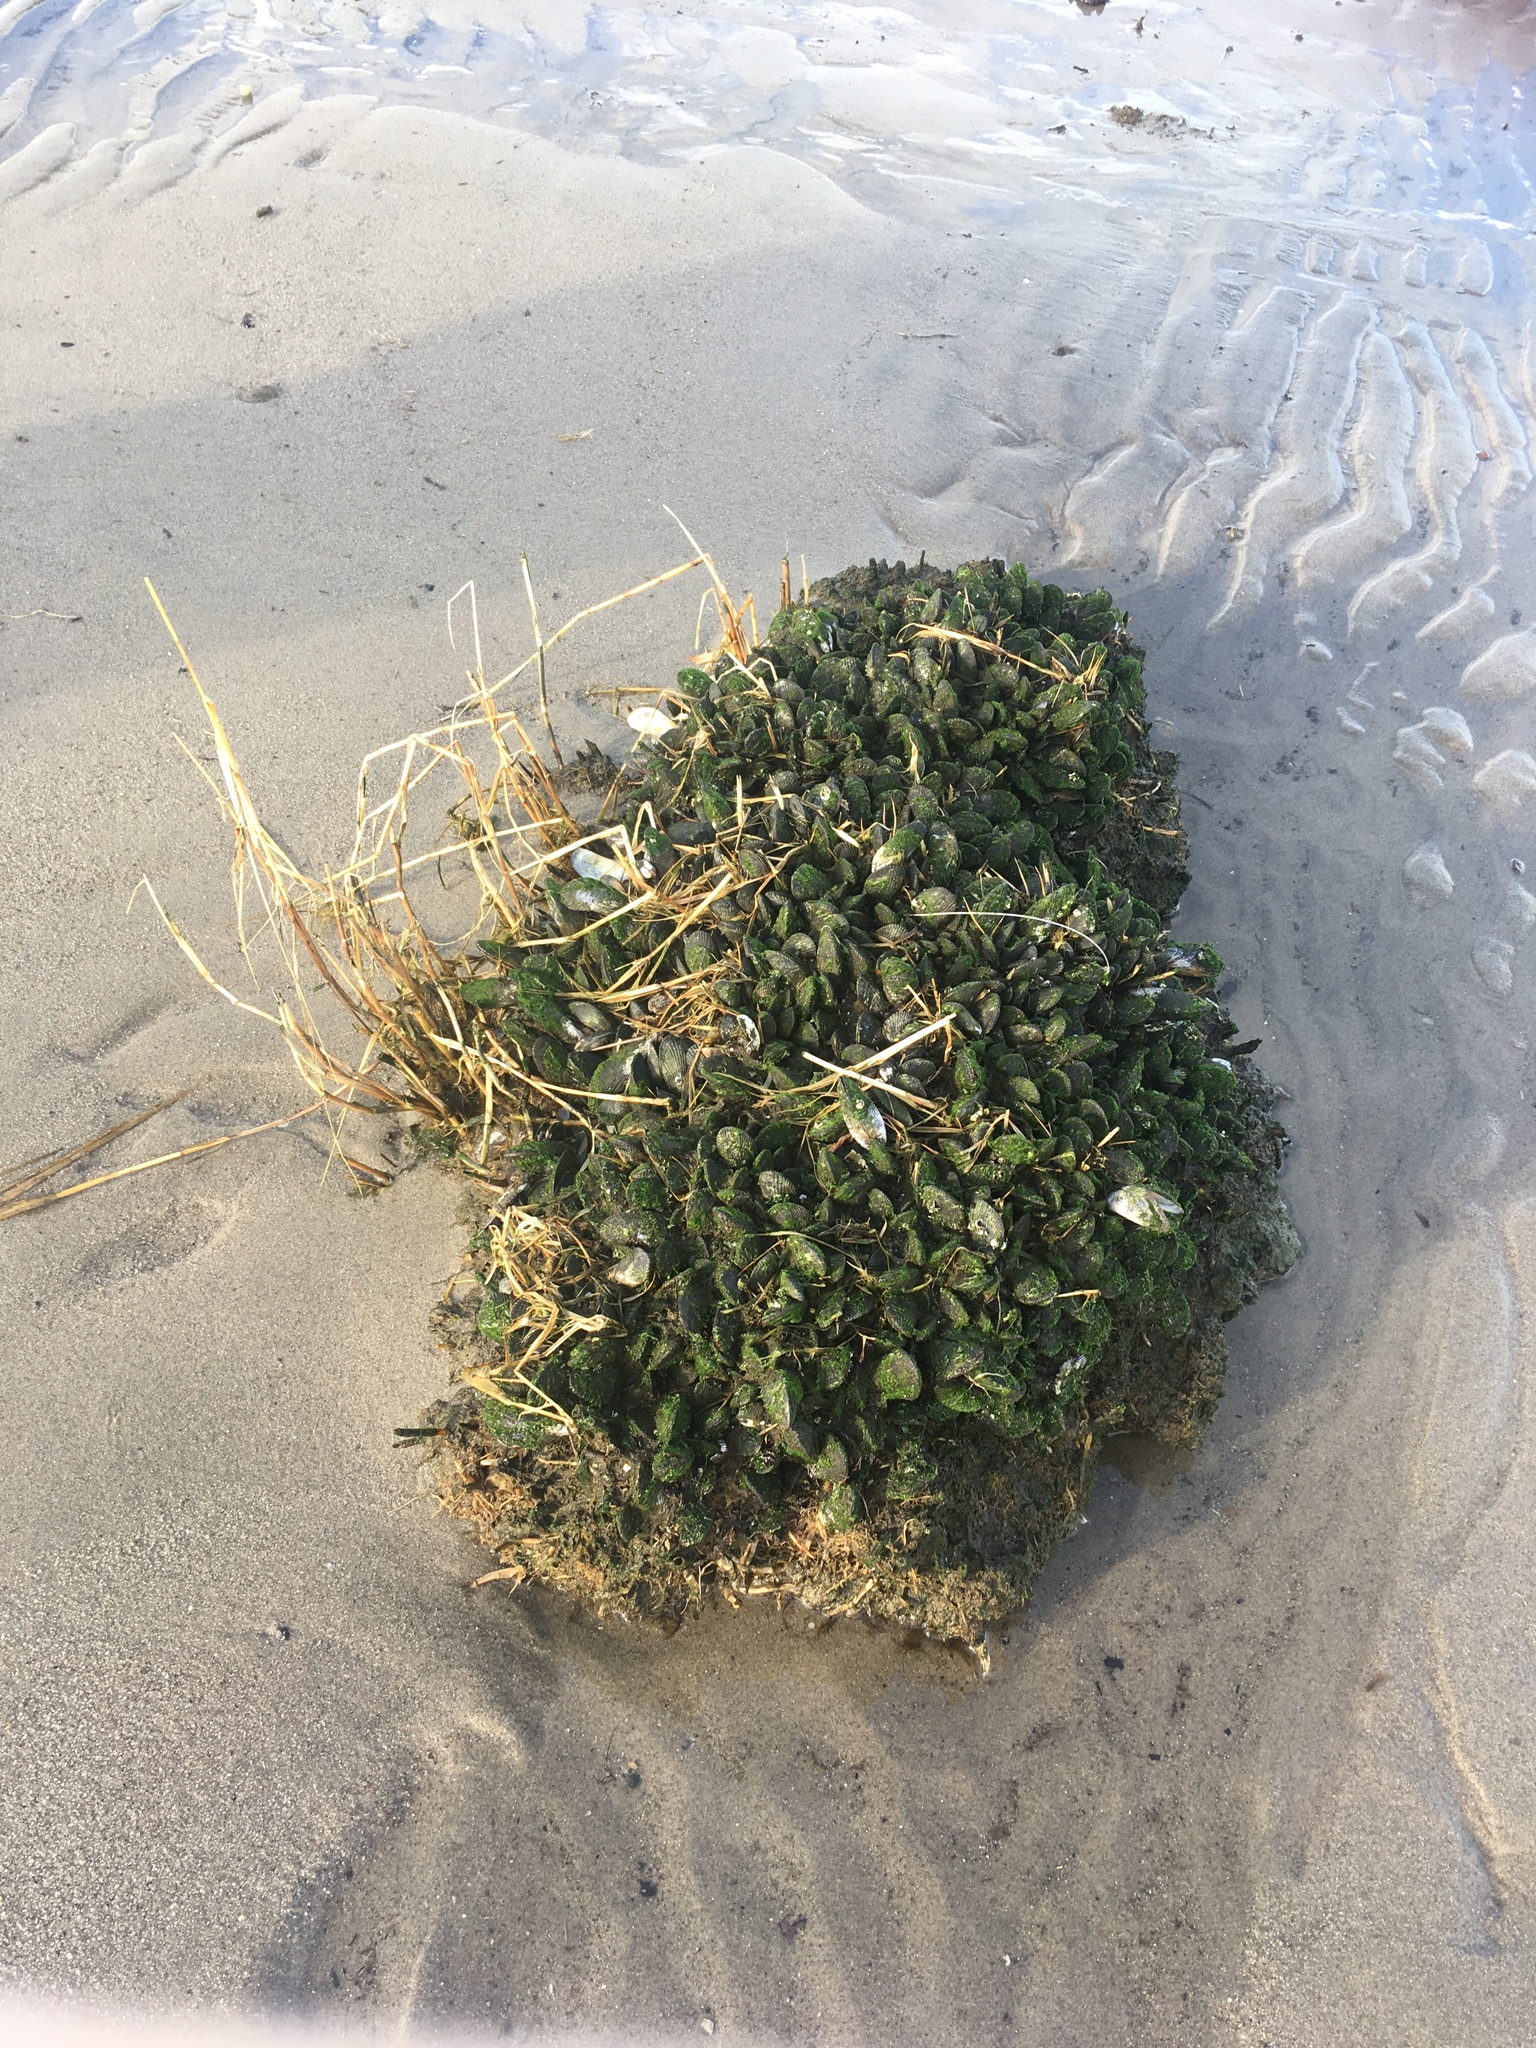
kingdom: Animalia
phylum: Mollusca
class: Bivalvia
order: Mytilida
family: Mytilidae
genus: Geukensia
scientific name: Geukensia demissa
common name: Ribbed mussel
